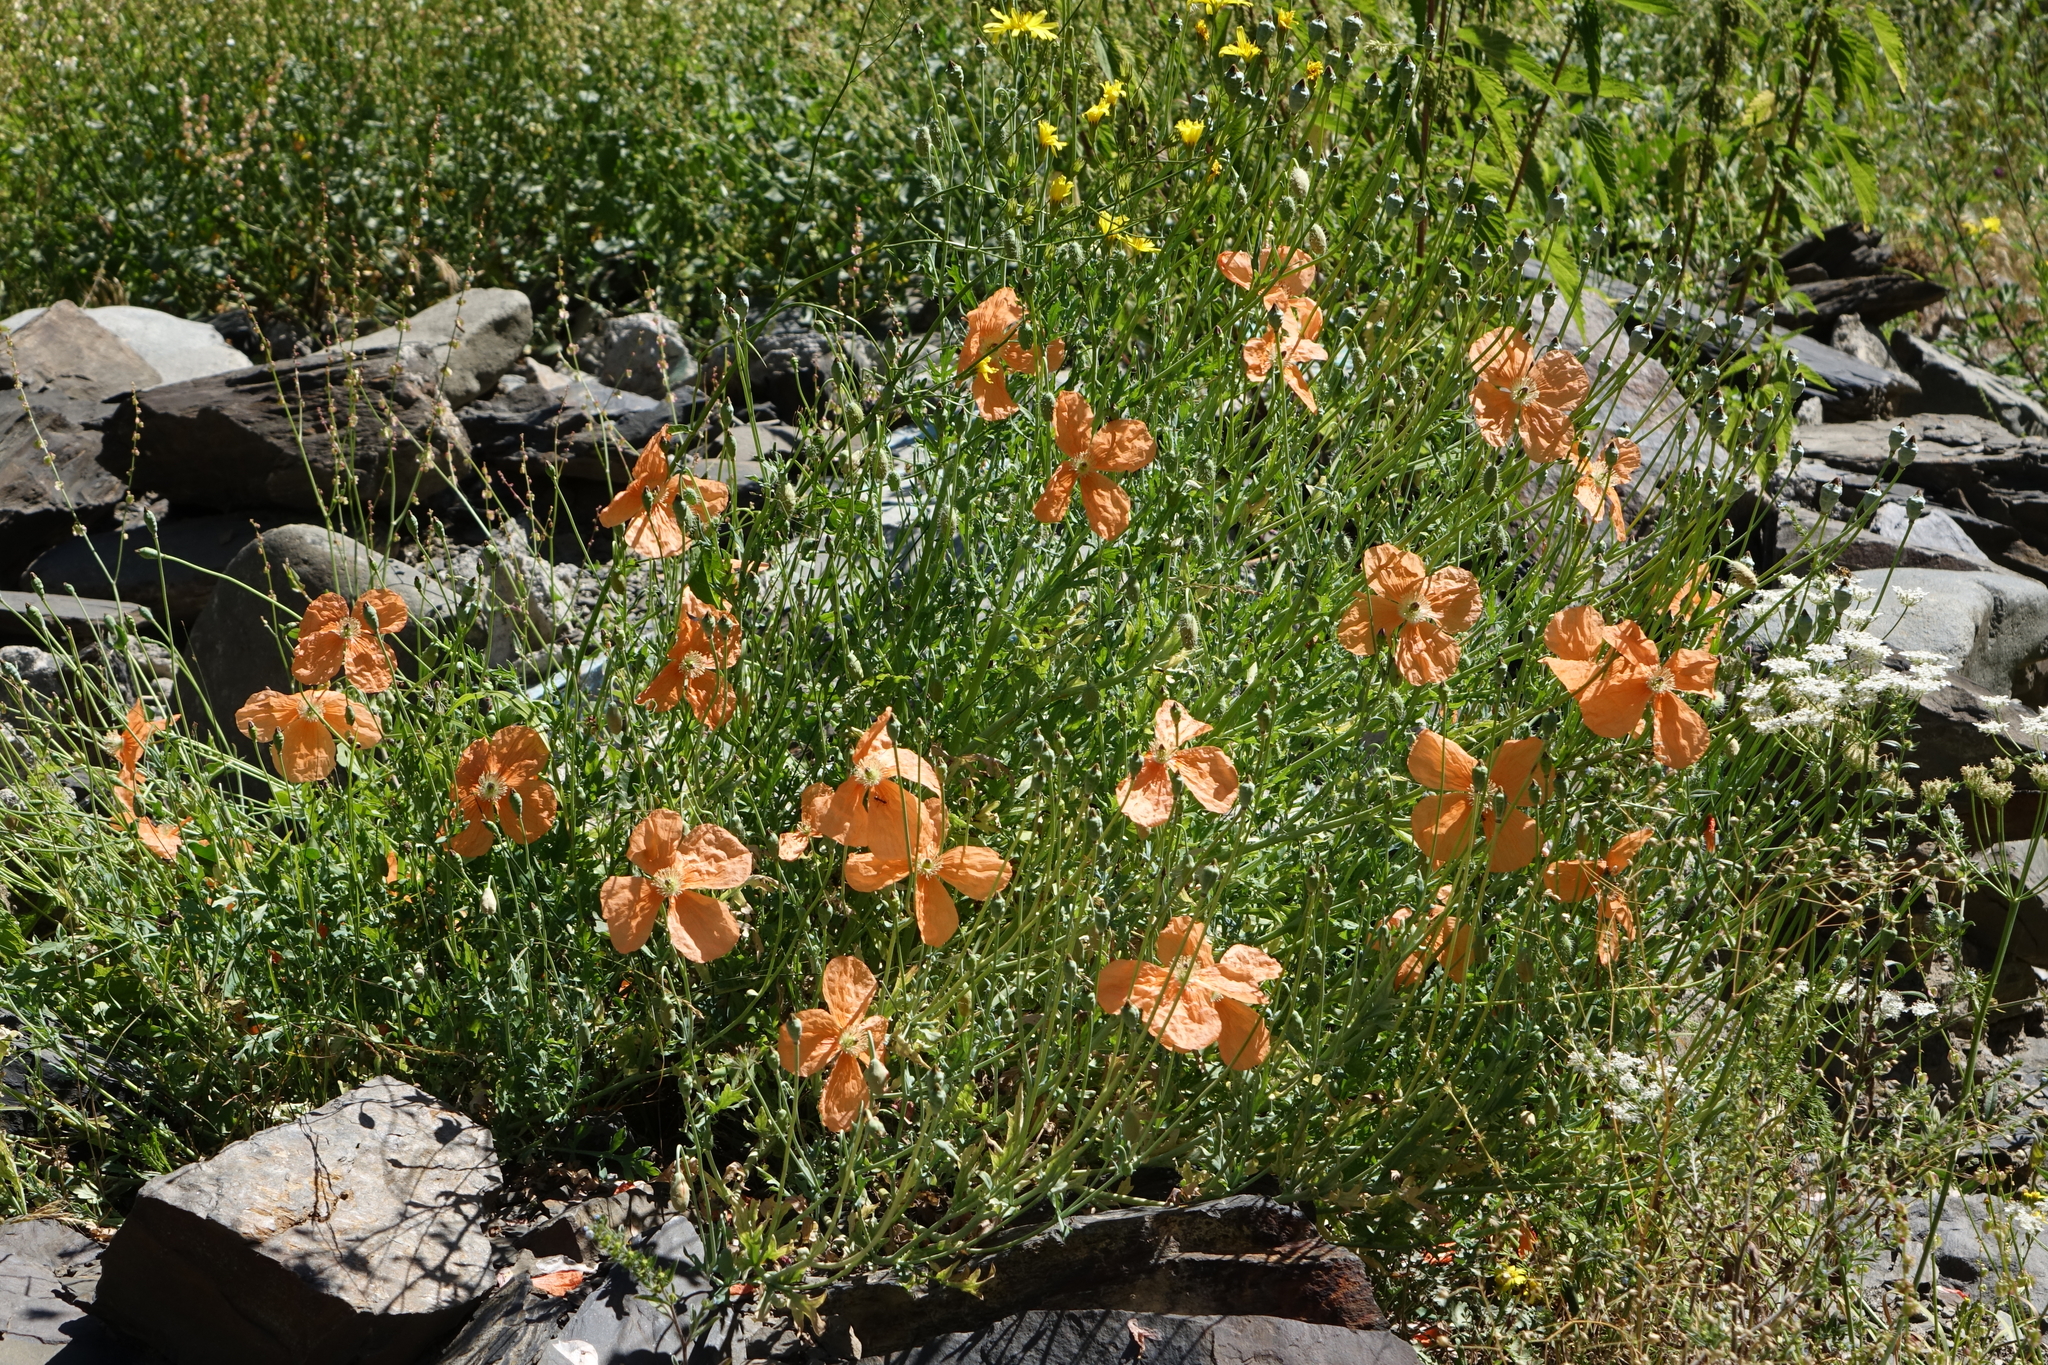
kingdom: Plantae
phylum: Tracheophyta
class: Magnoliopsida
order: Ranunculales
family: Papaveraceae
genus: Papaver
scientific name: Papaver armeniacum
